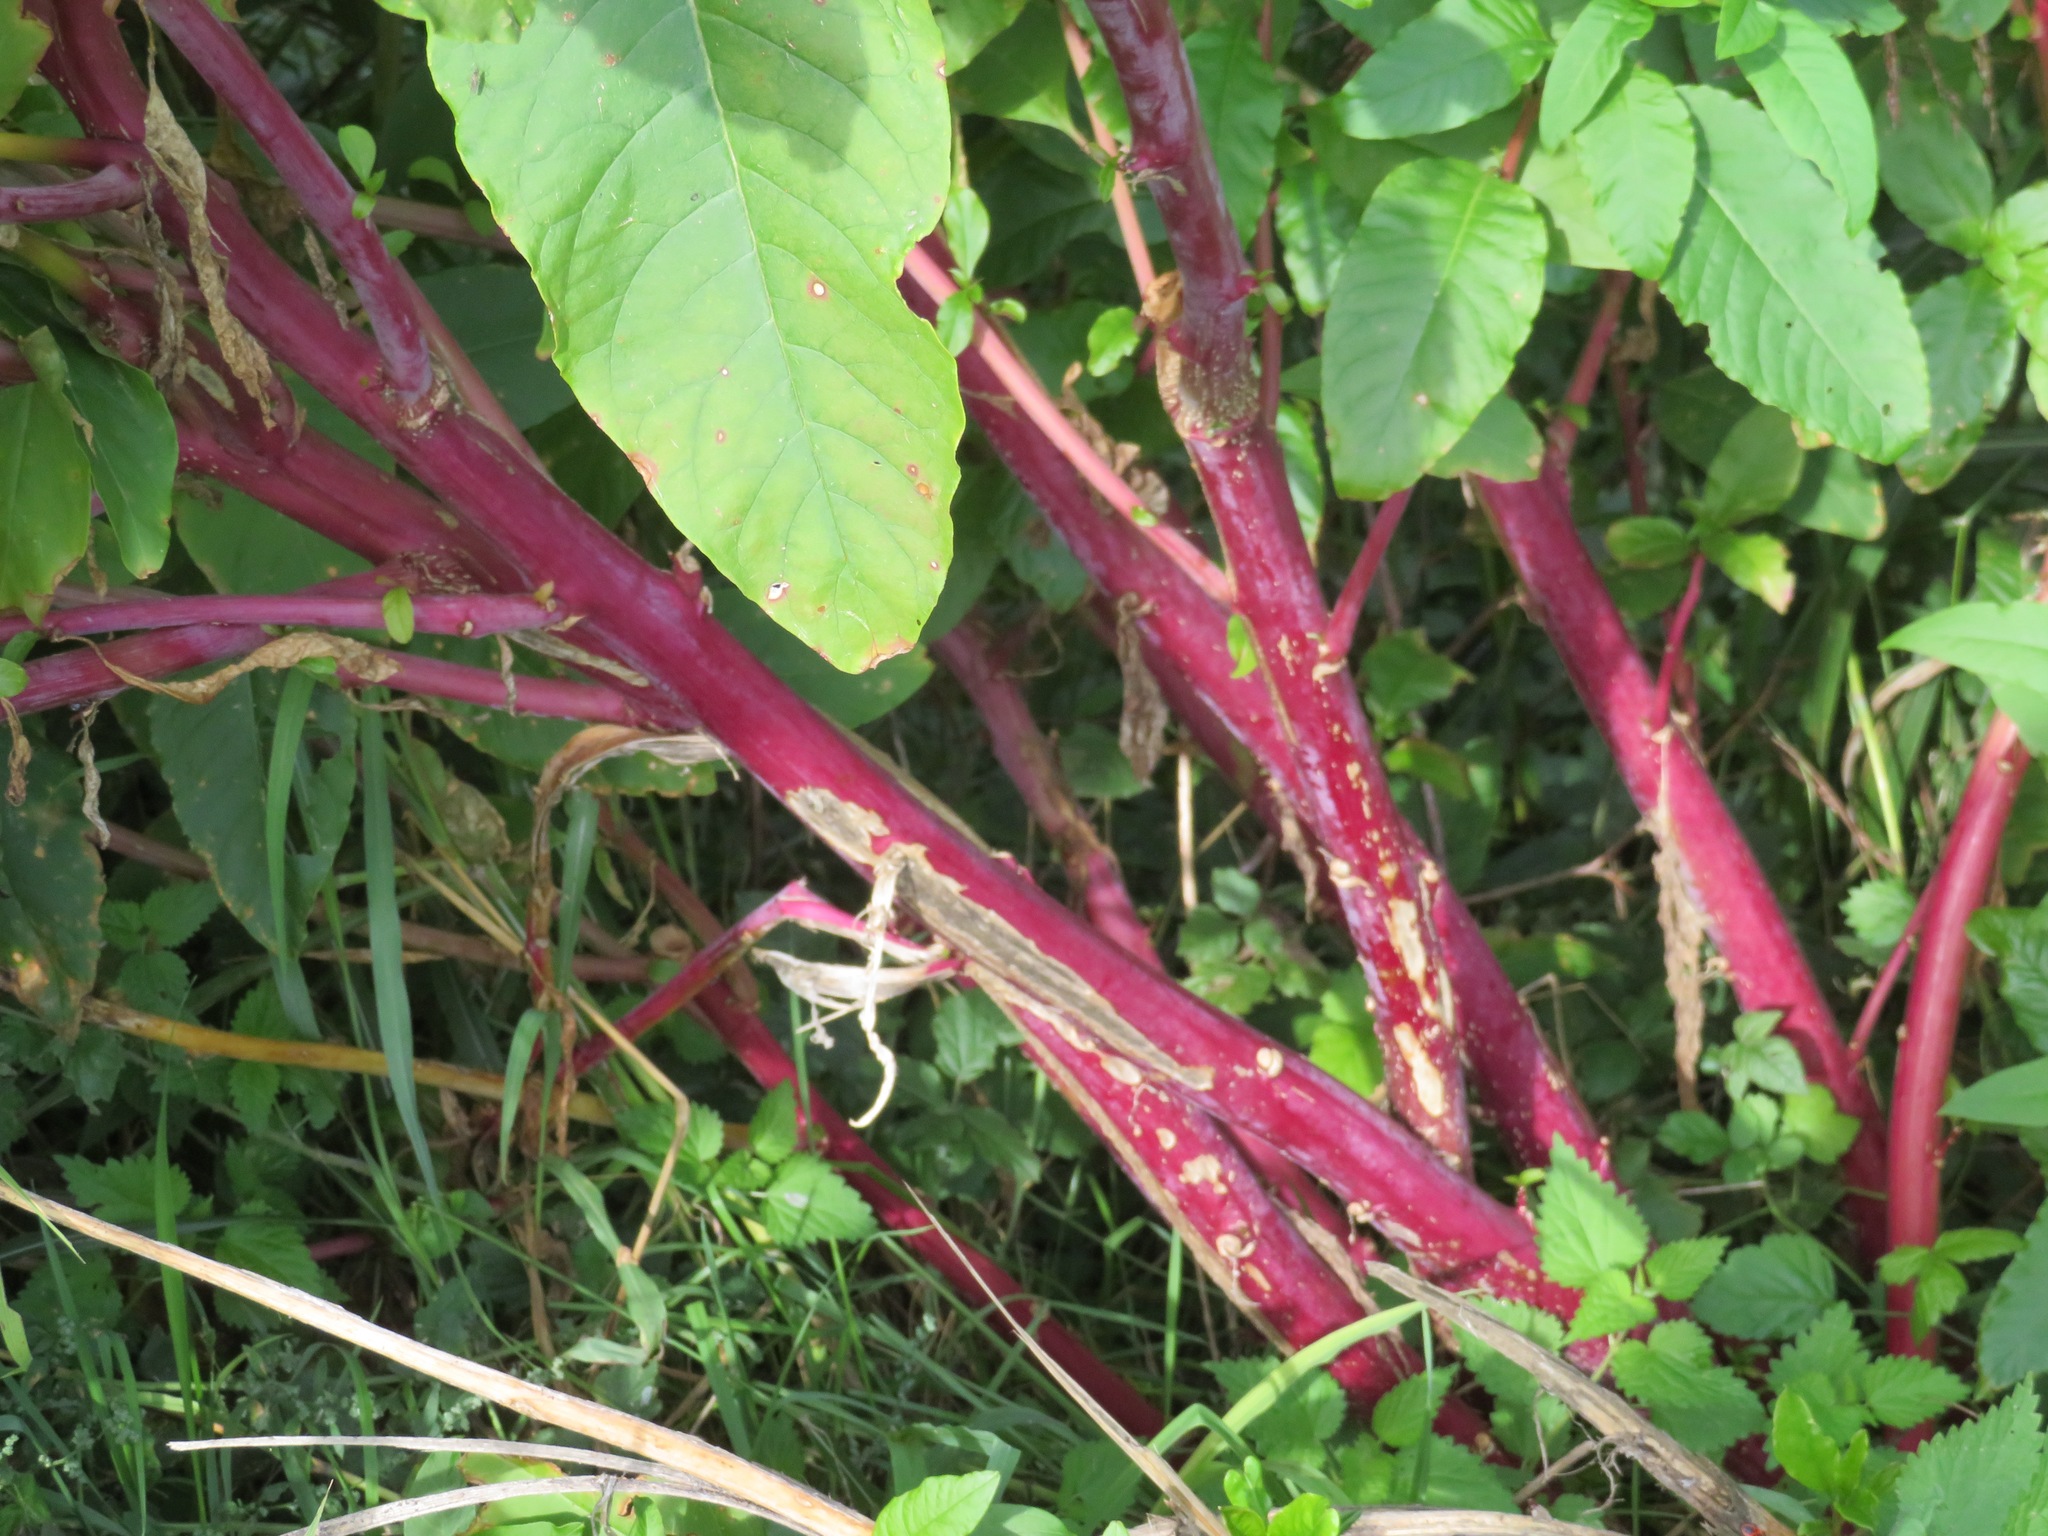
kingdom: Plantae
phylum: Tracheophyta
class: Magnoliopsida
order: Caryophyllales
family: Phytolaccaceae
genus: Phytolacca
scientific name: Phytolacca americana
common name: American pokeweed
